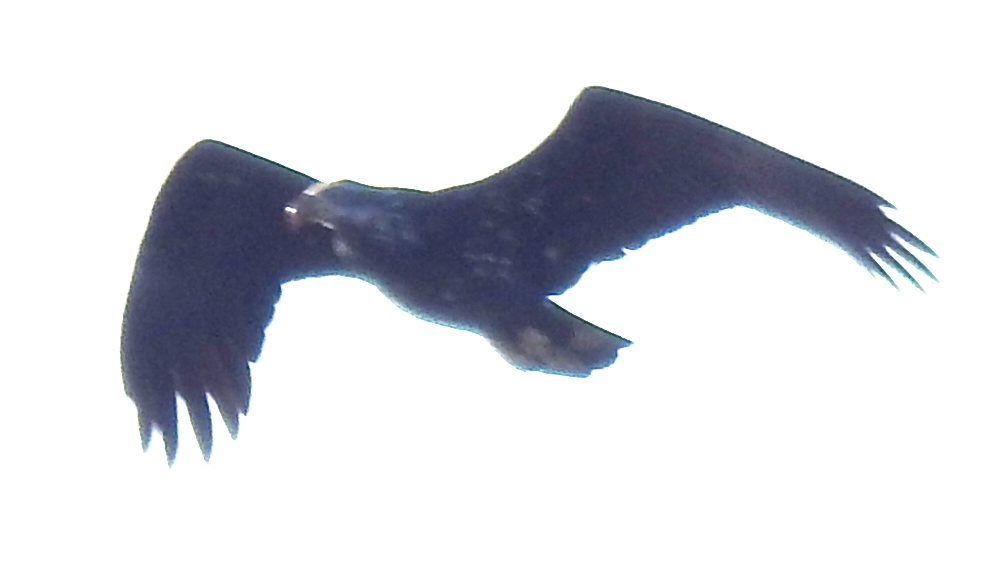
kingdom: Animalia
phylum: Chordata
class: Aves
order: Accipitriformes
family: Accipitridae
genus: Haliaeetus
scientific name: Haliaeetus leucocephalus
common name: Bald eagle
